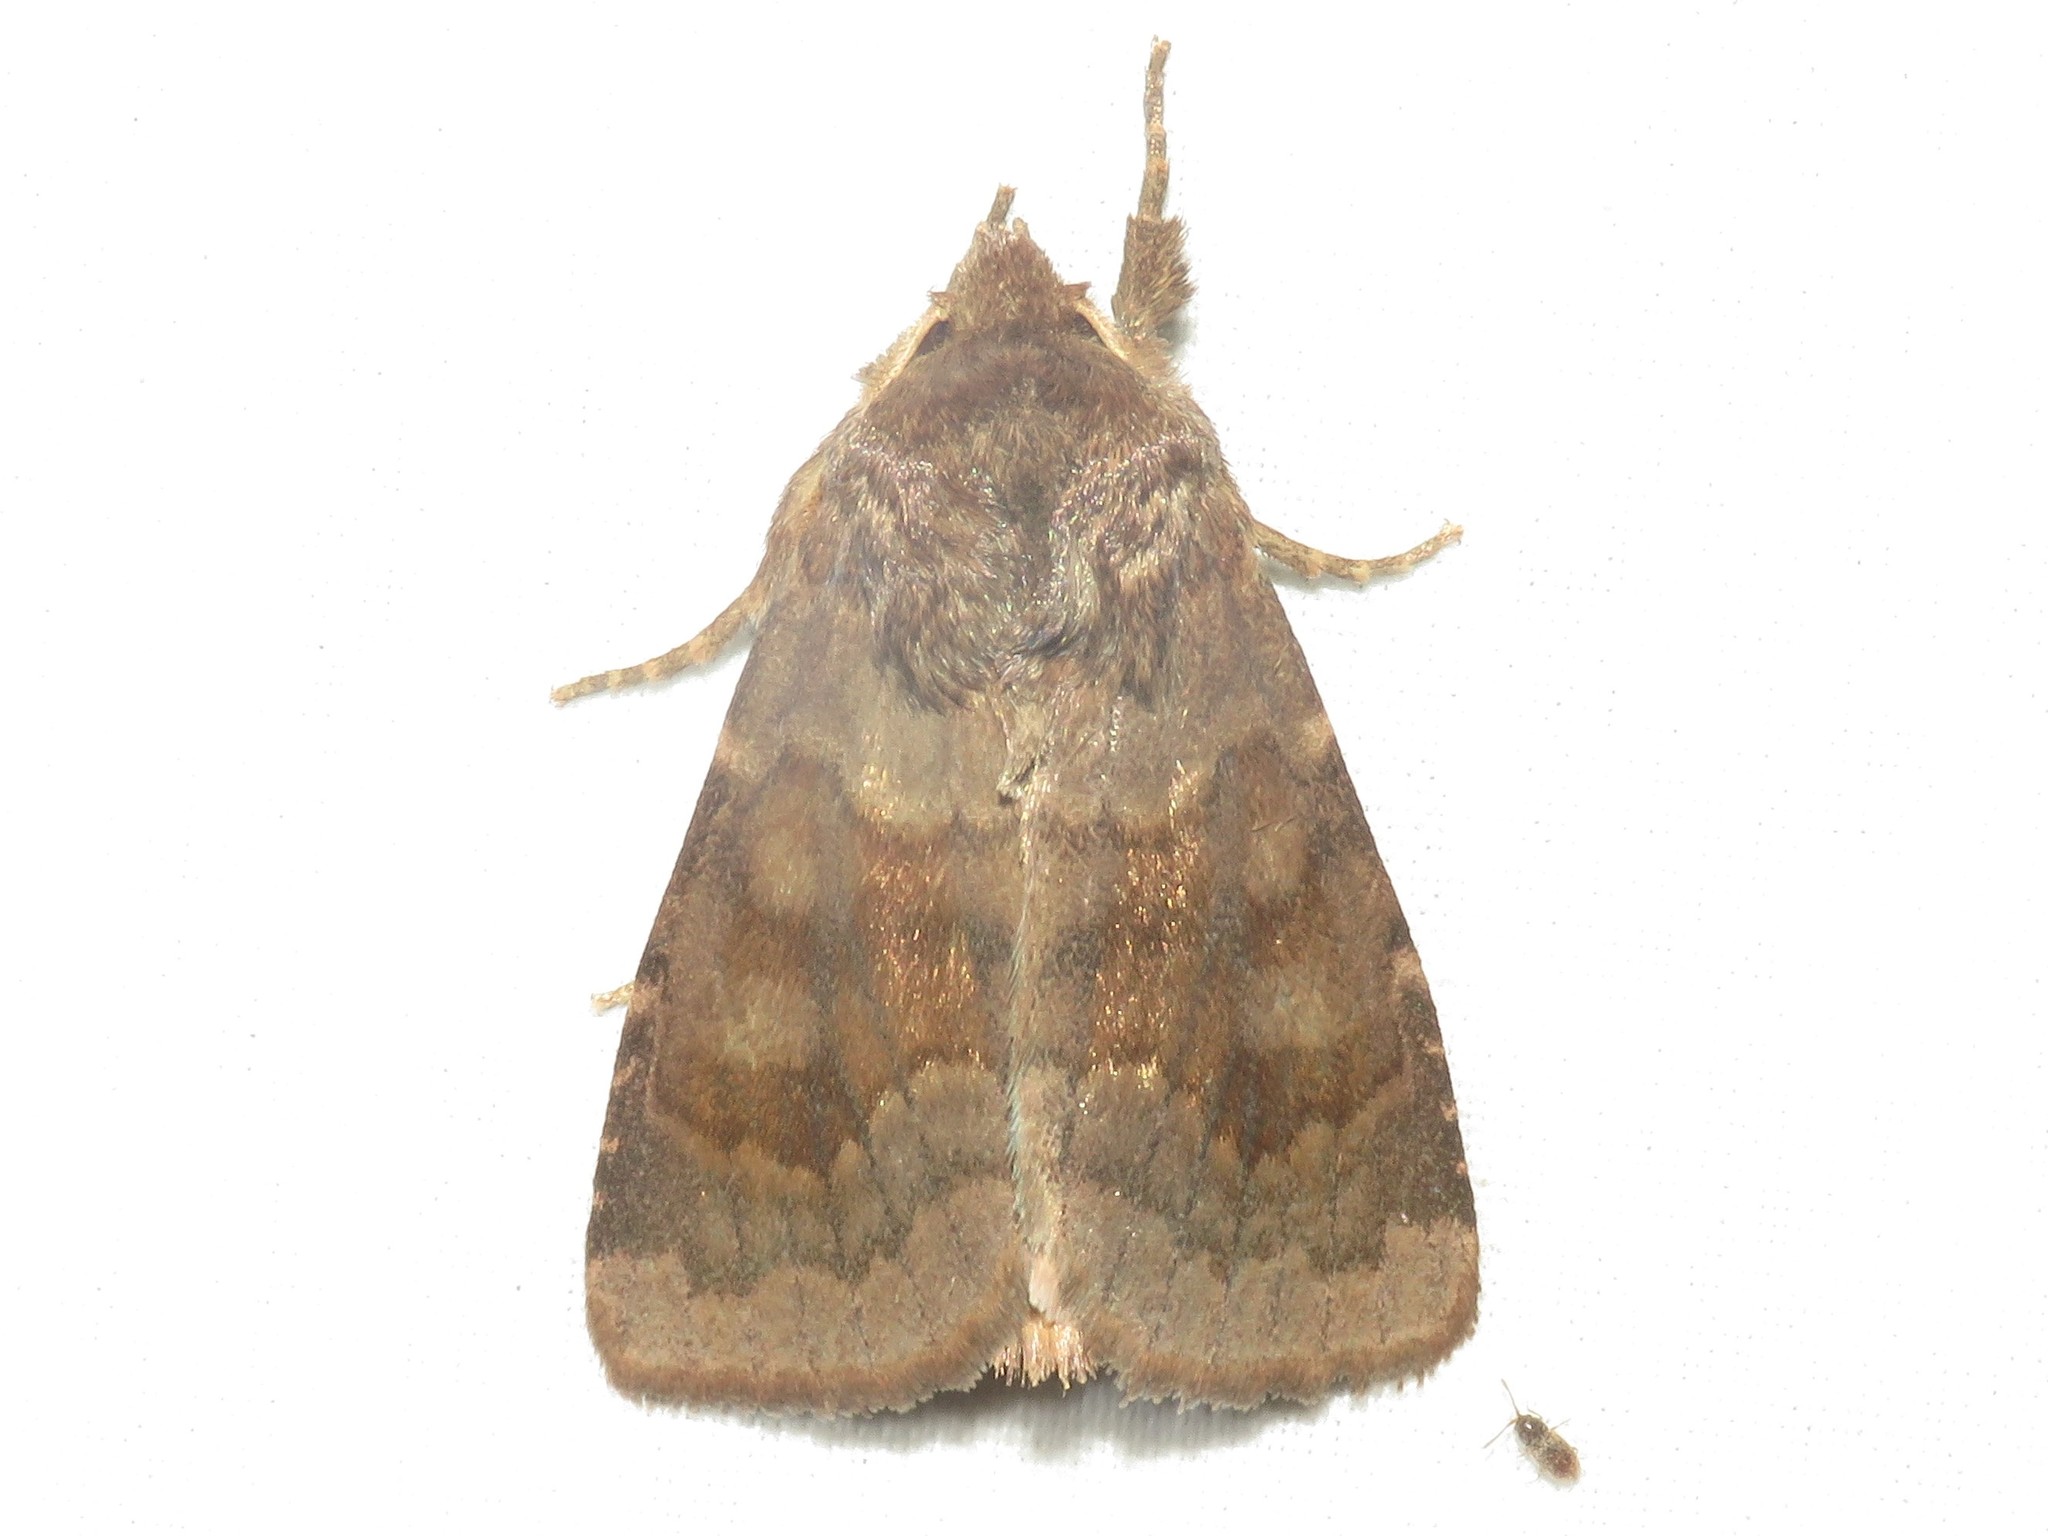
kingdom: Animalia
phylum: Arthropoda
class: Insecta
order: Lepidoptera
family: Noctuidae
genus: Nephelodes
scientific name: Nephelodes minians
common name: Bronzed cutworm
